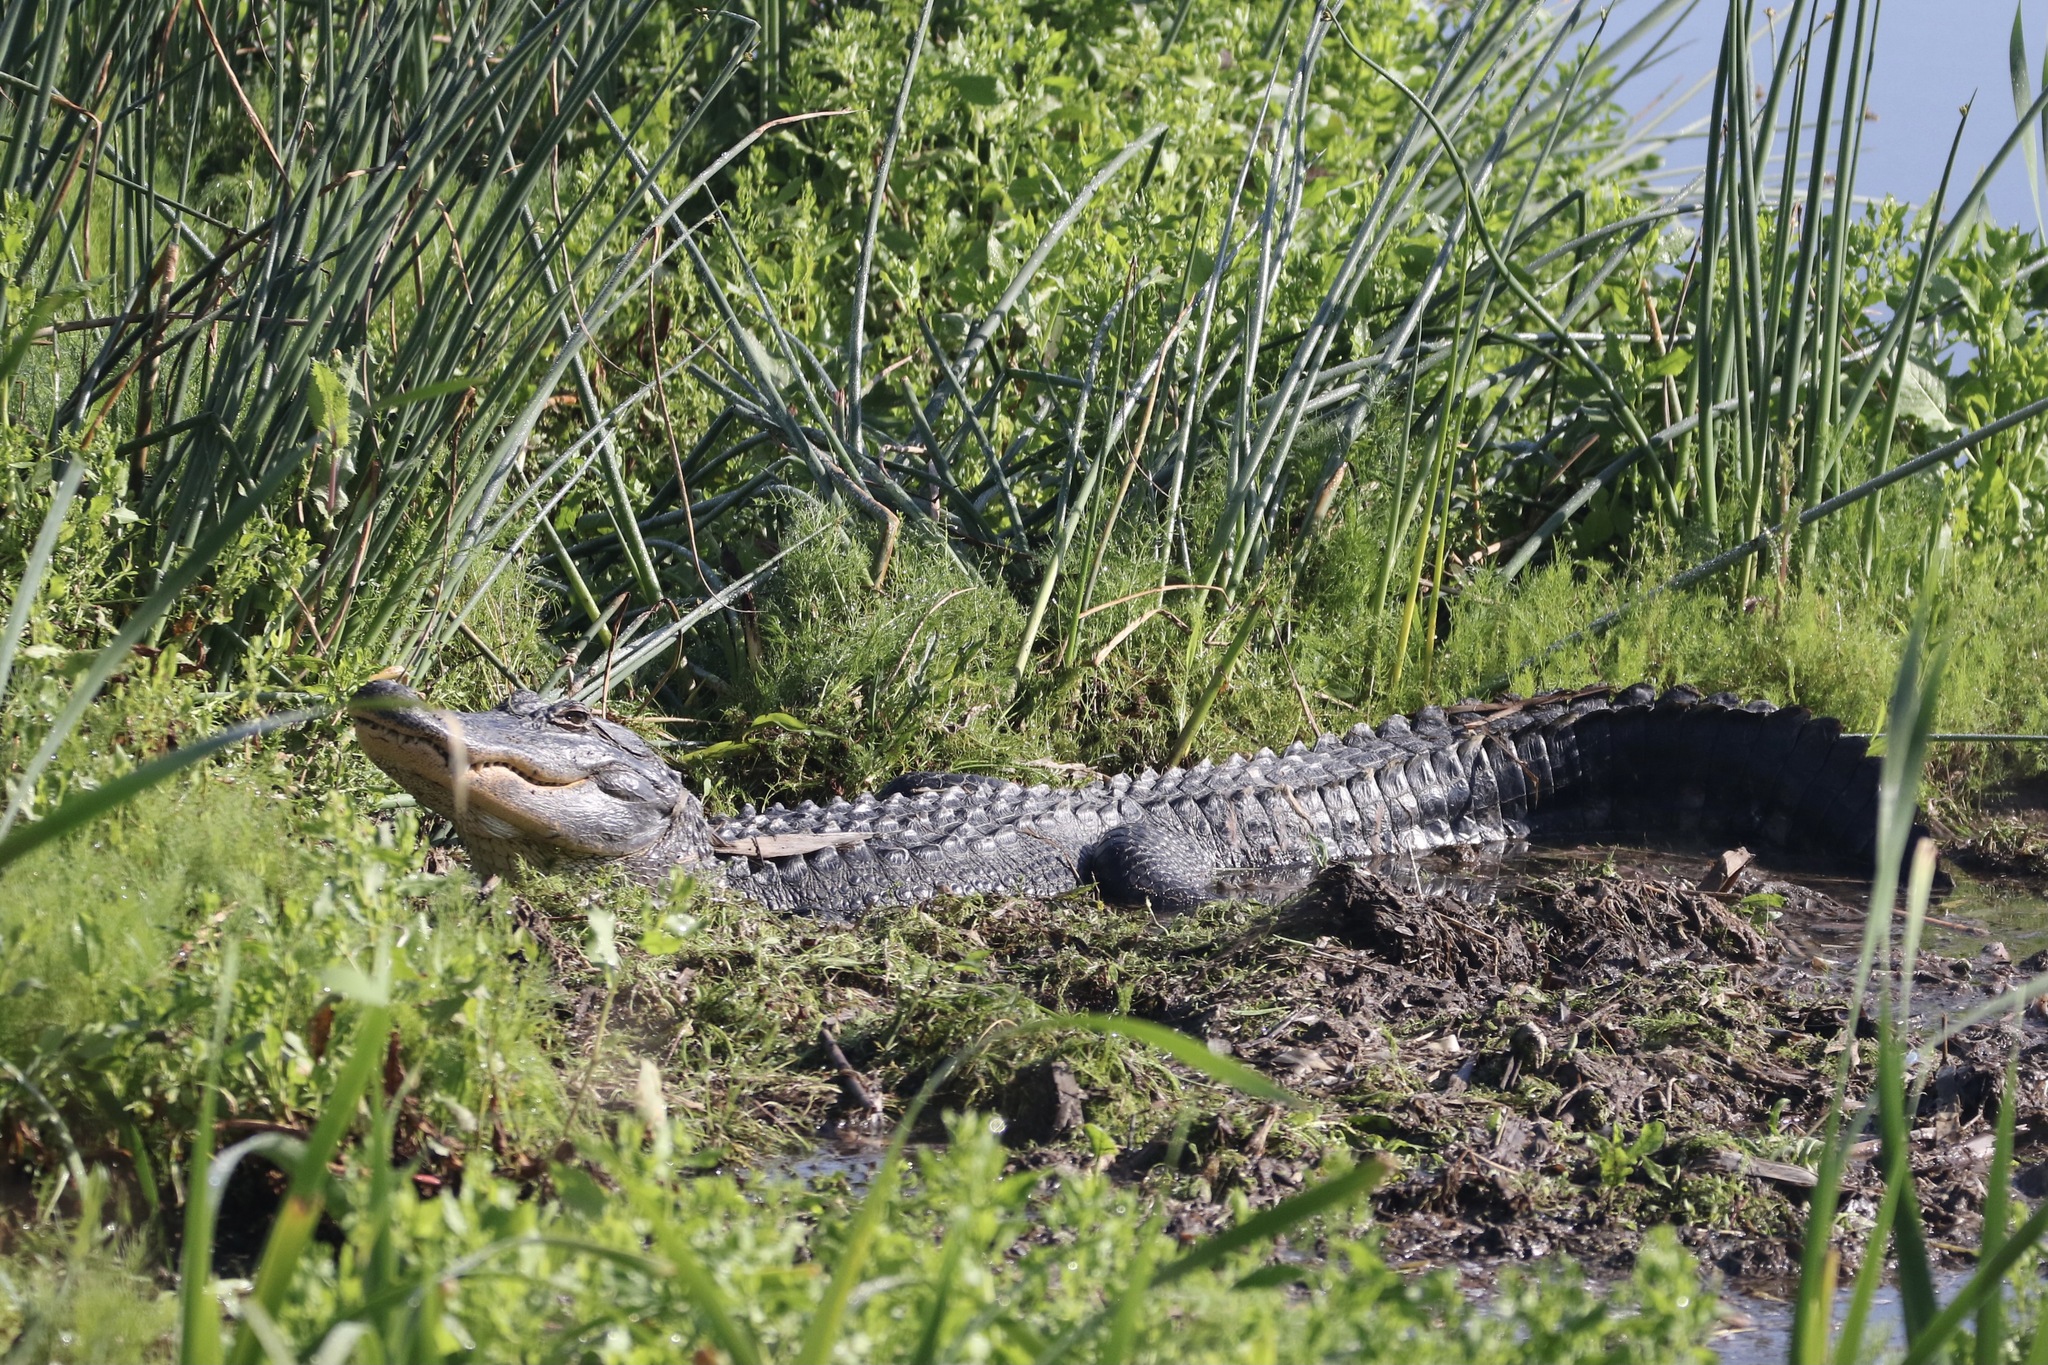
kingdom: Animalia
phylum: Chordata
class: Crocodylia
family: Alligatoridae
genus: Alligator
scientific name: Alligator mississippiensis
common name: American alligator
